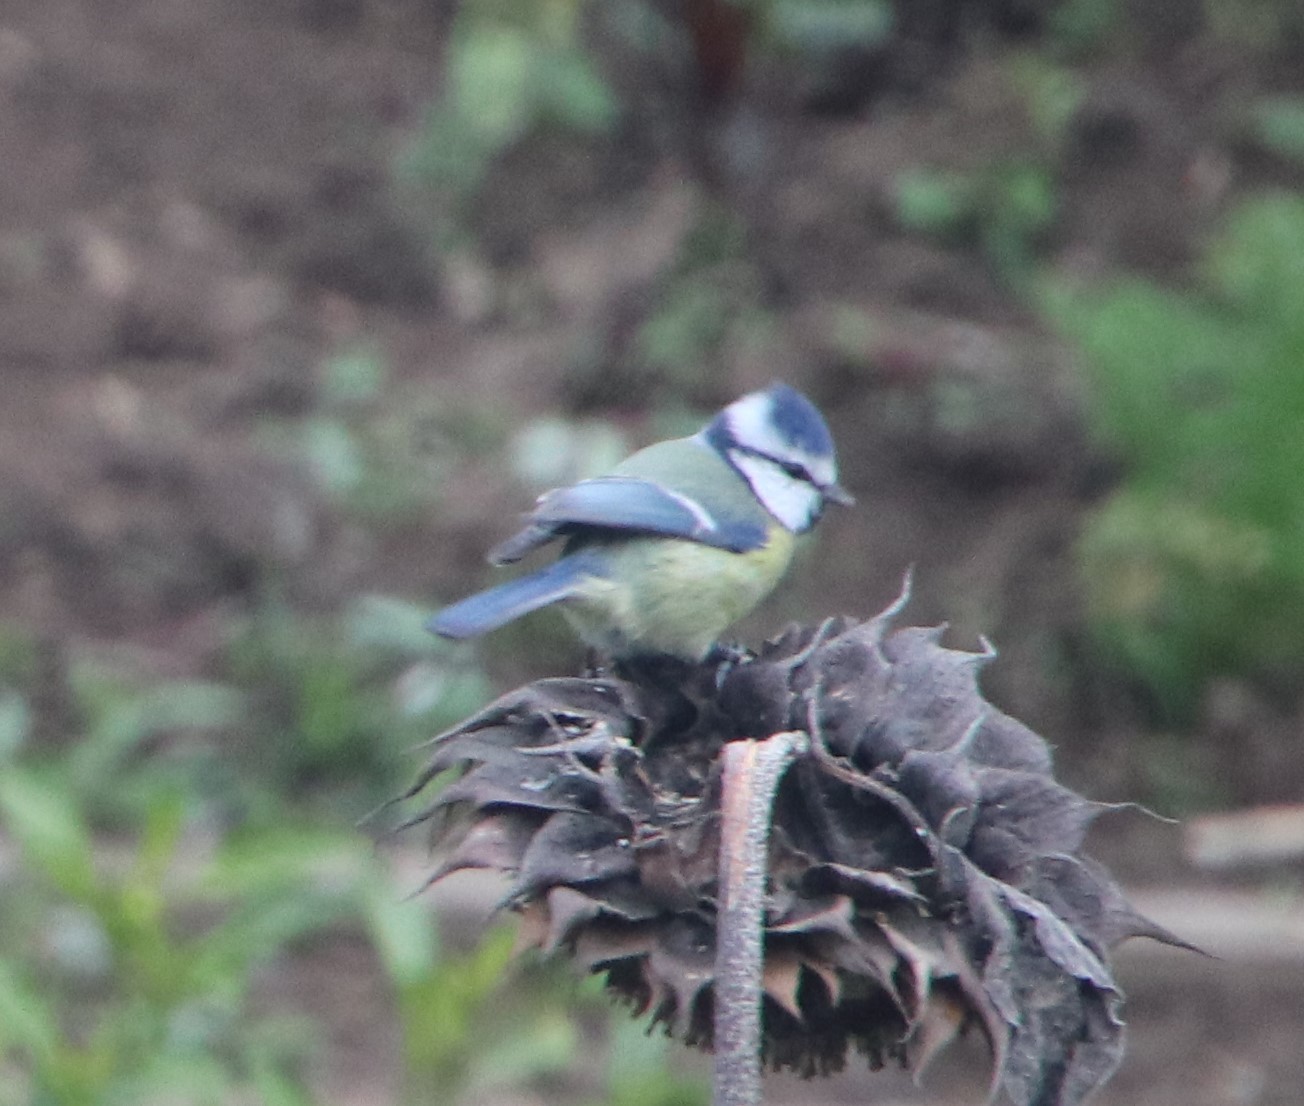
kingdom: Animalia
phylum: Chordata
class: Aves
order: Passeriformes
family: Paridae
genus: Cyanistes
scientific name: Cyanistes caeruleus
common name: Eurasian blue tit
